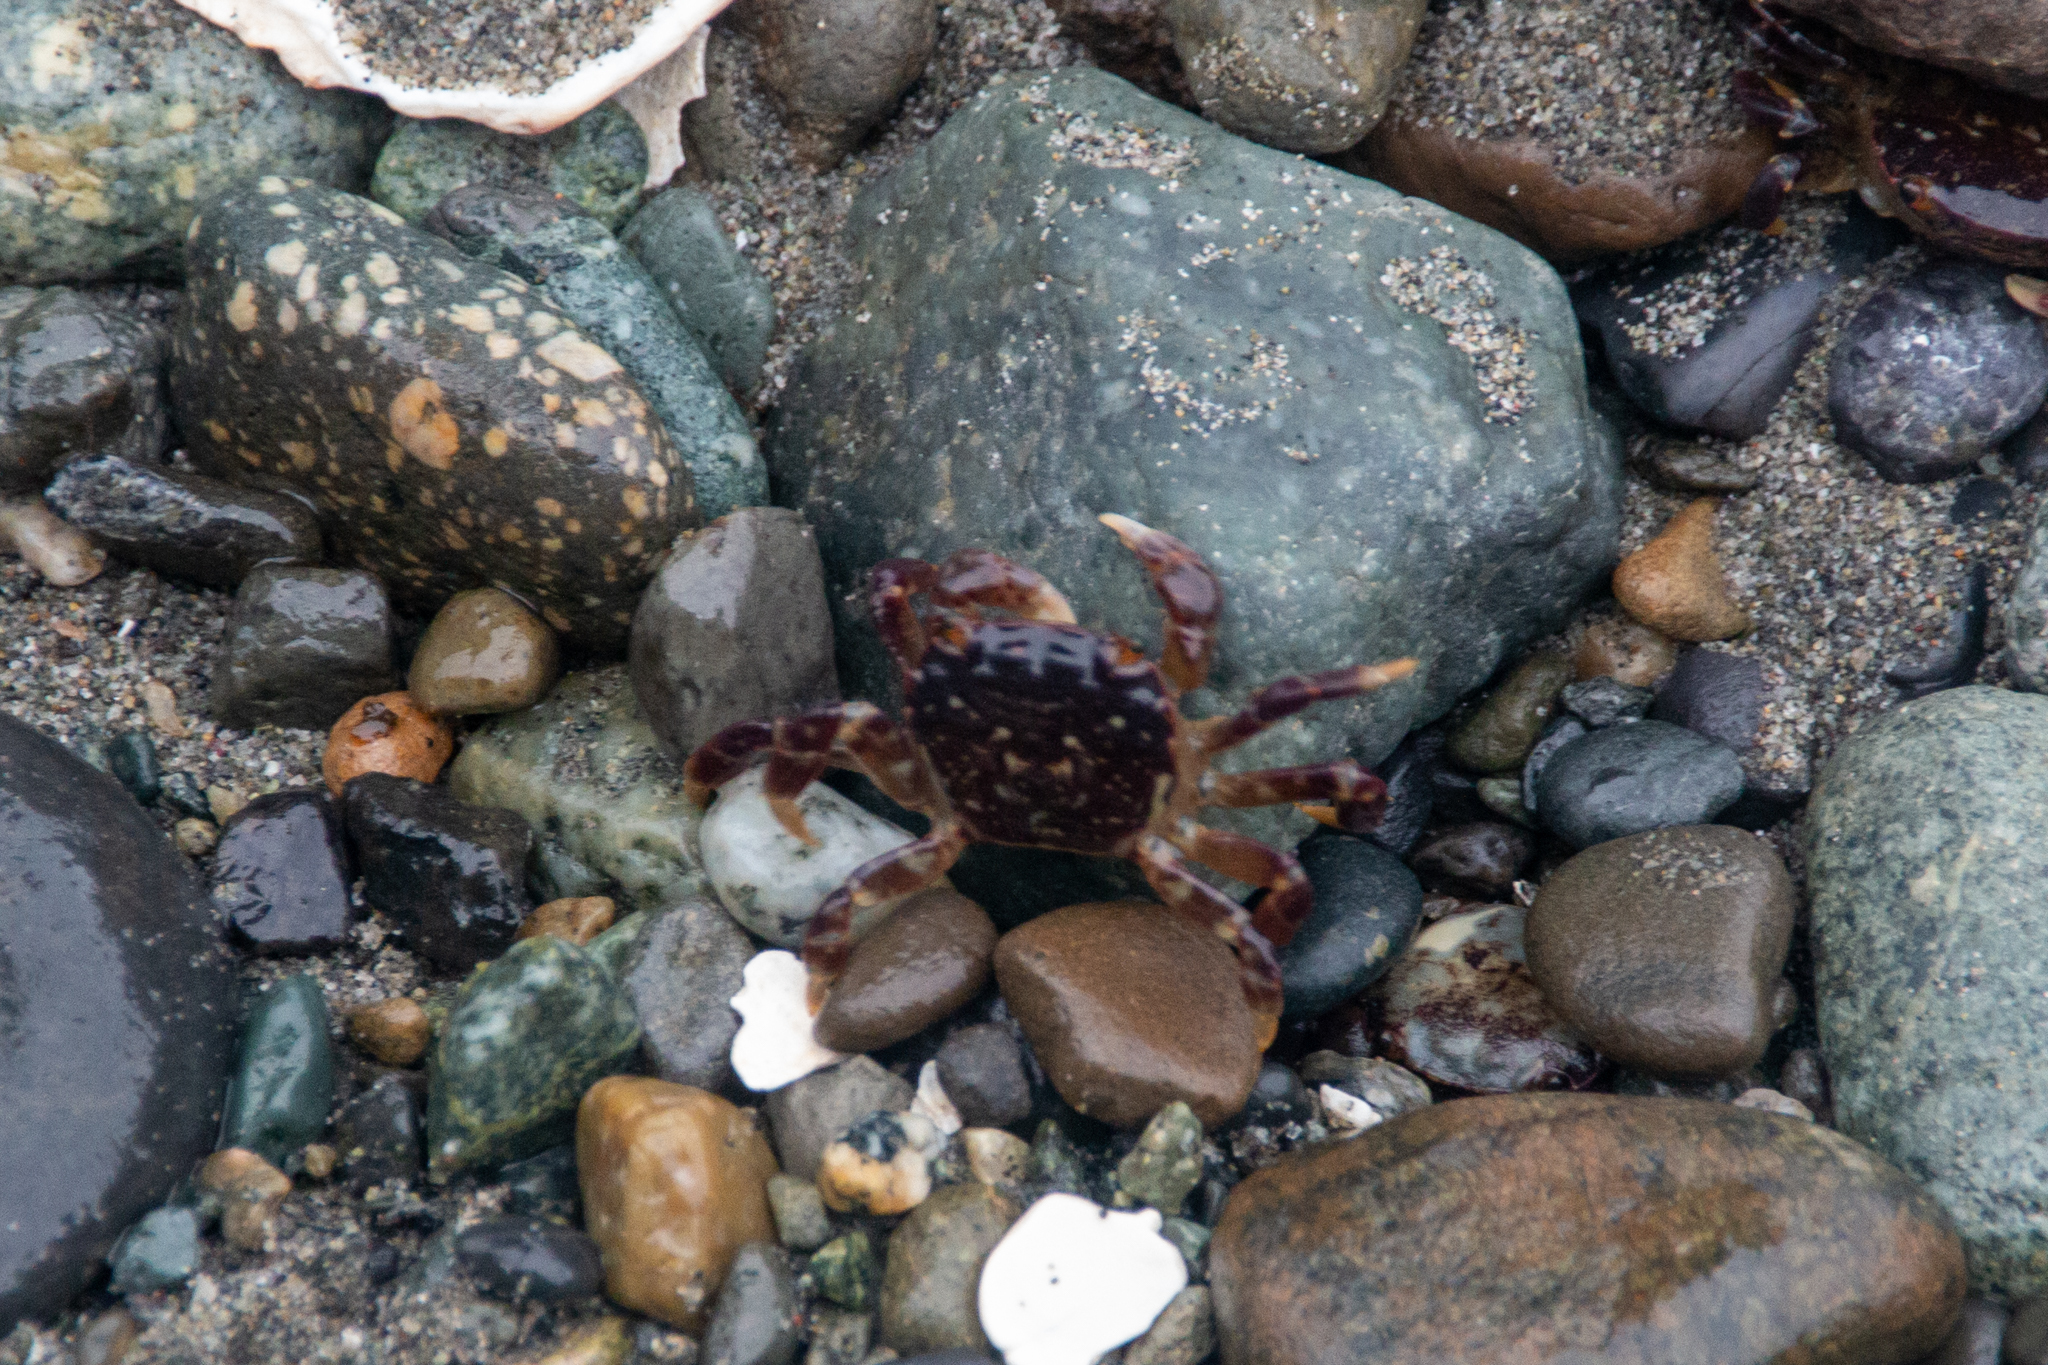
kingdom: Animalia
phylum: Arthropoda
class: Malacostraca
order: Decapoda
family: Varunidae
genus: Hemigrapsus
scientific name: Hemigrapsus nudus
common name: Purple shore crab
